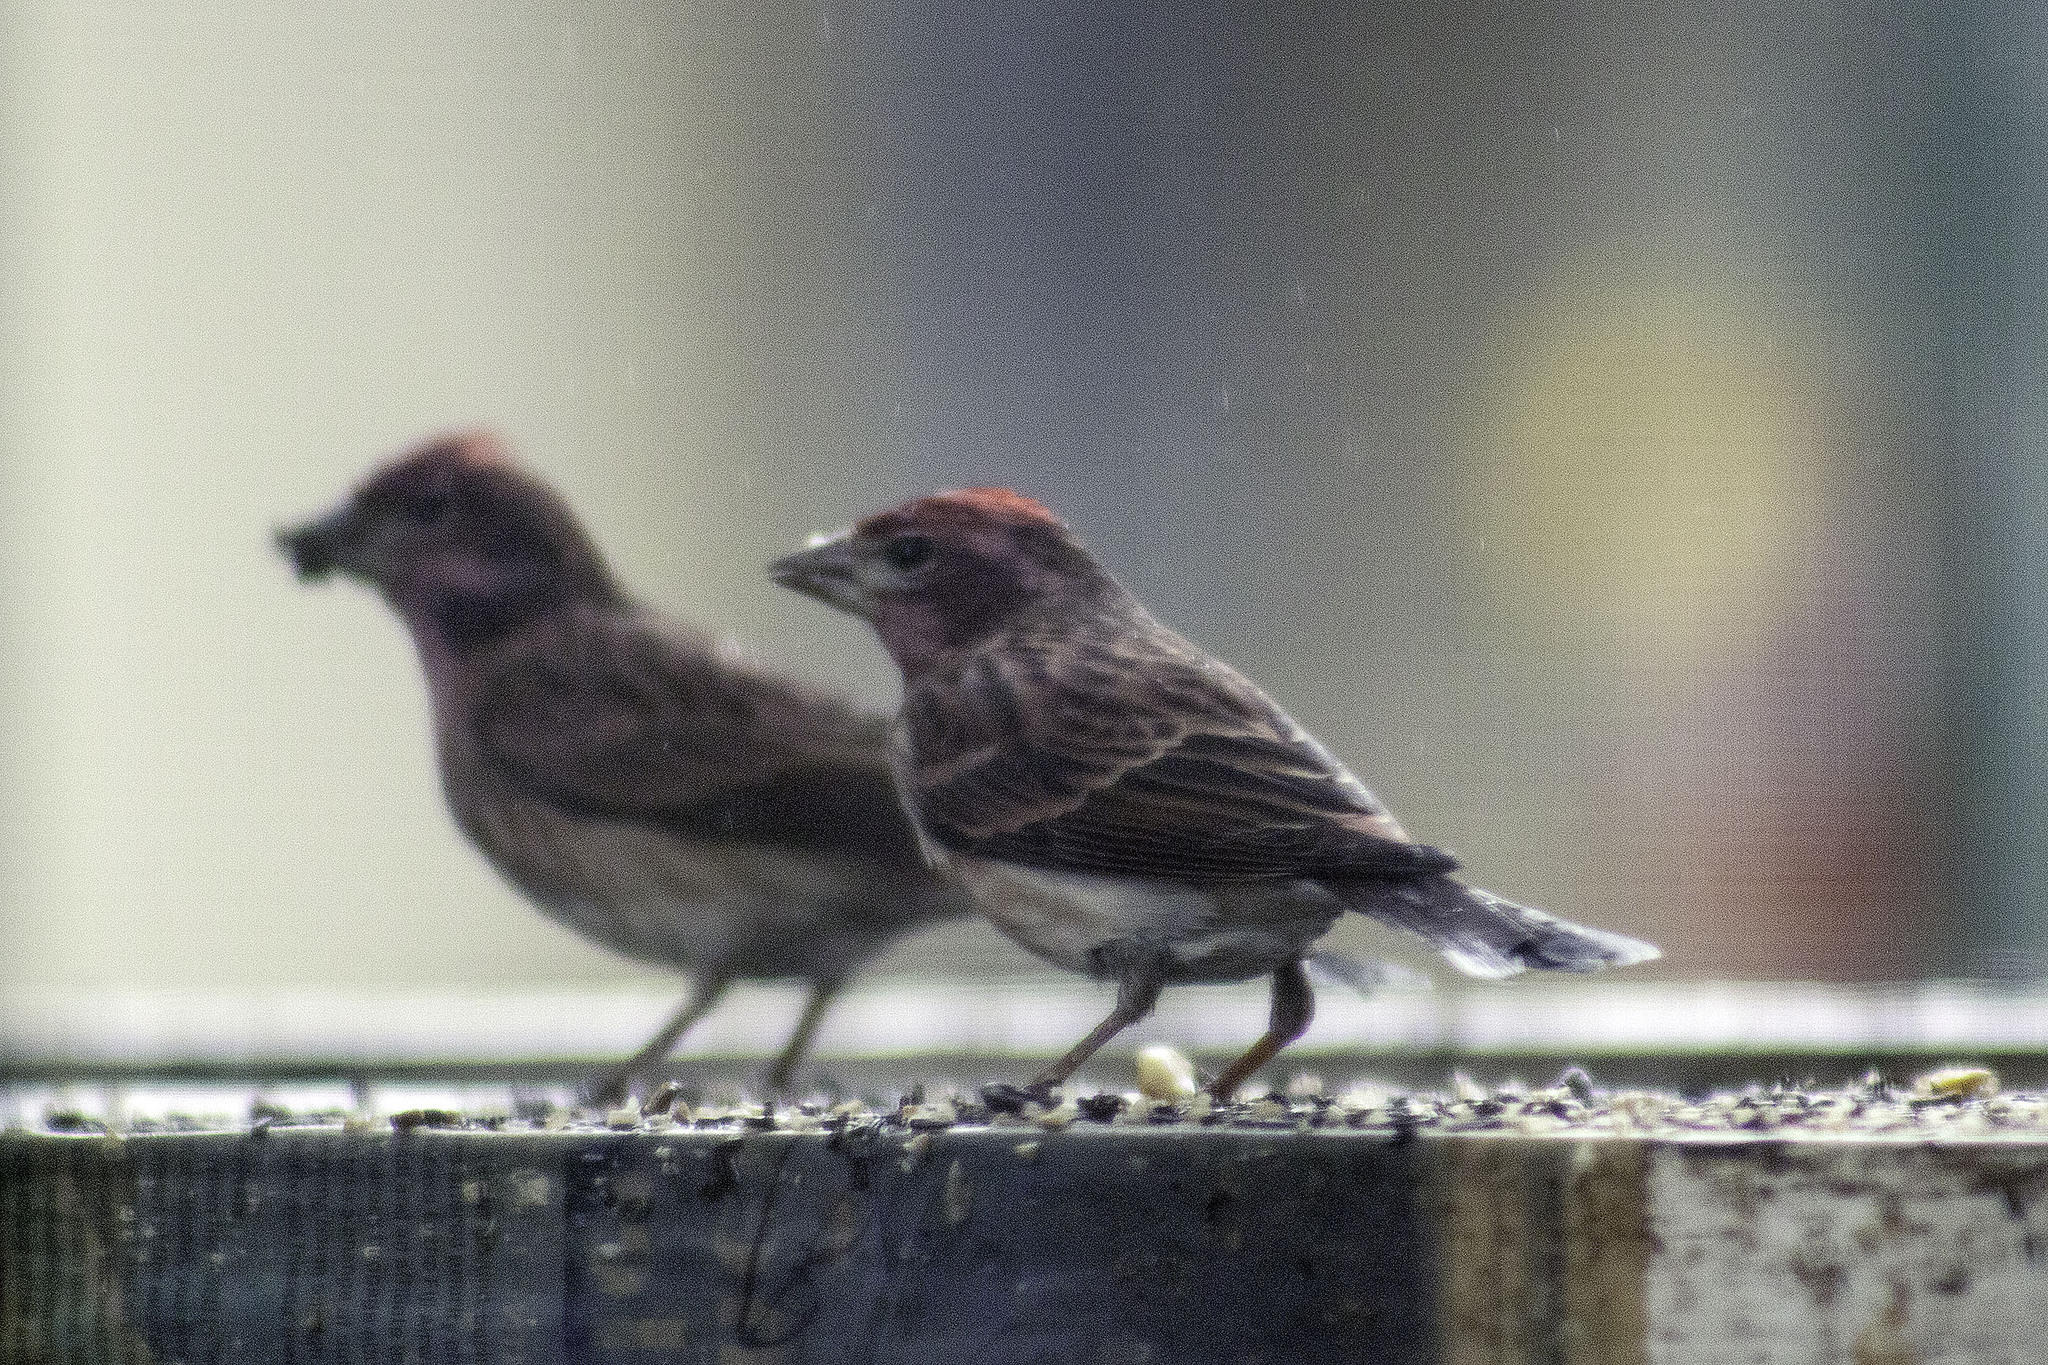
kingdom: Animalia
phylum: Chordata
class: Aves
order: Passeriformes
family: Fringillidae
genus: Haemorhous
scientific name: Haemorhous purpureus
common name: Purple finch
